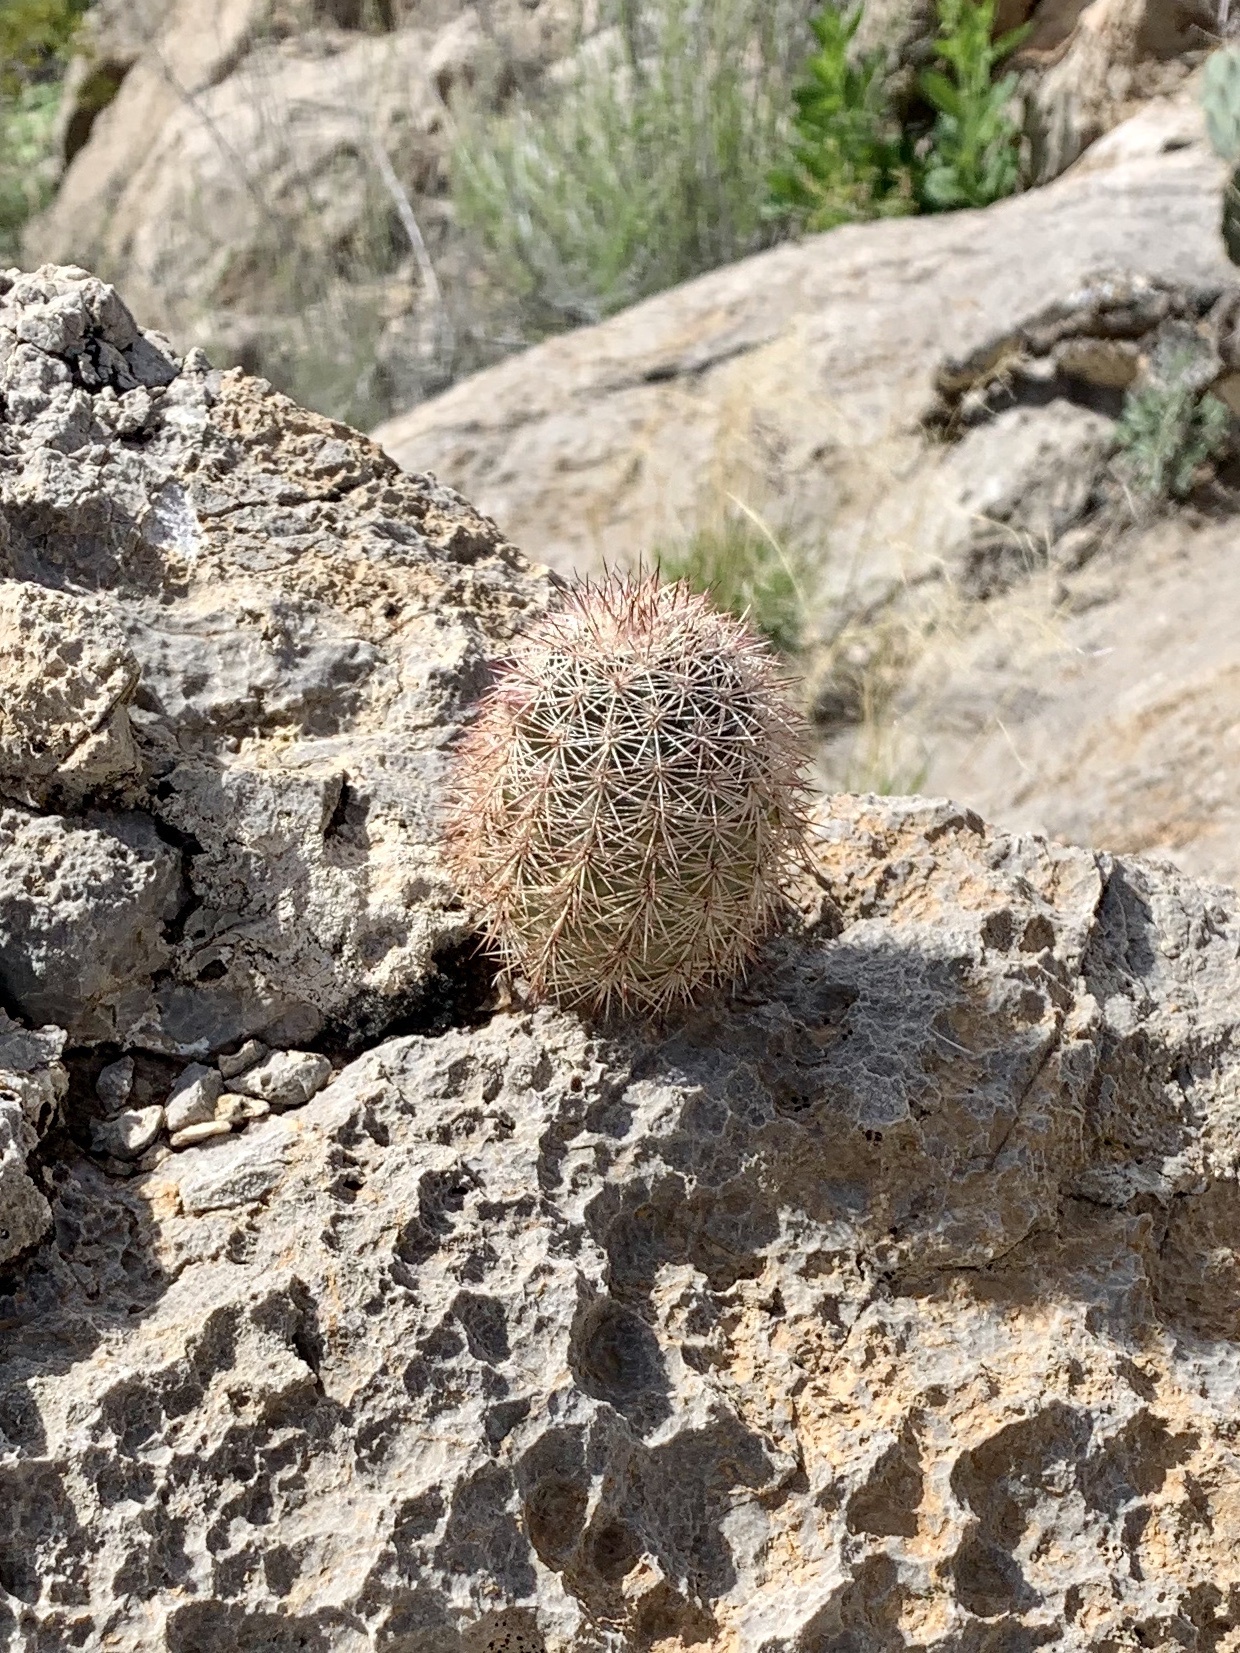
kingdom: Plantae
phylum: Tracheophyta
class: Magnoliopsida
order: Caryophyllales
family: Cactaceae
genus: Echinocereus
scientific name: Echinocereus dasyacanthus
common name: Spiny hedgehog cactus
